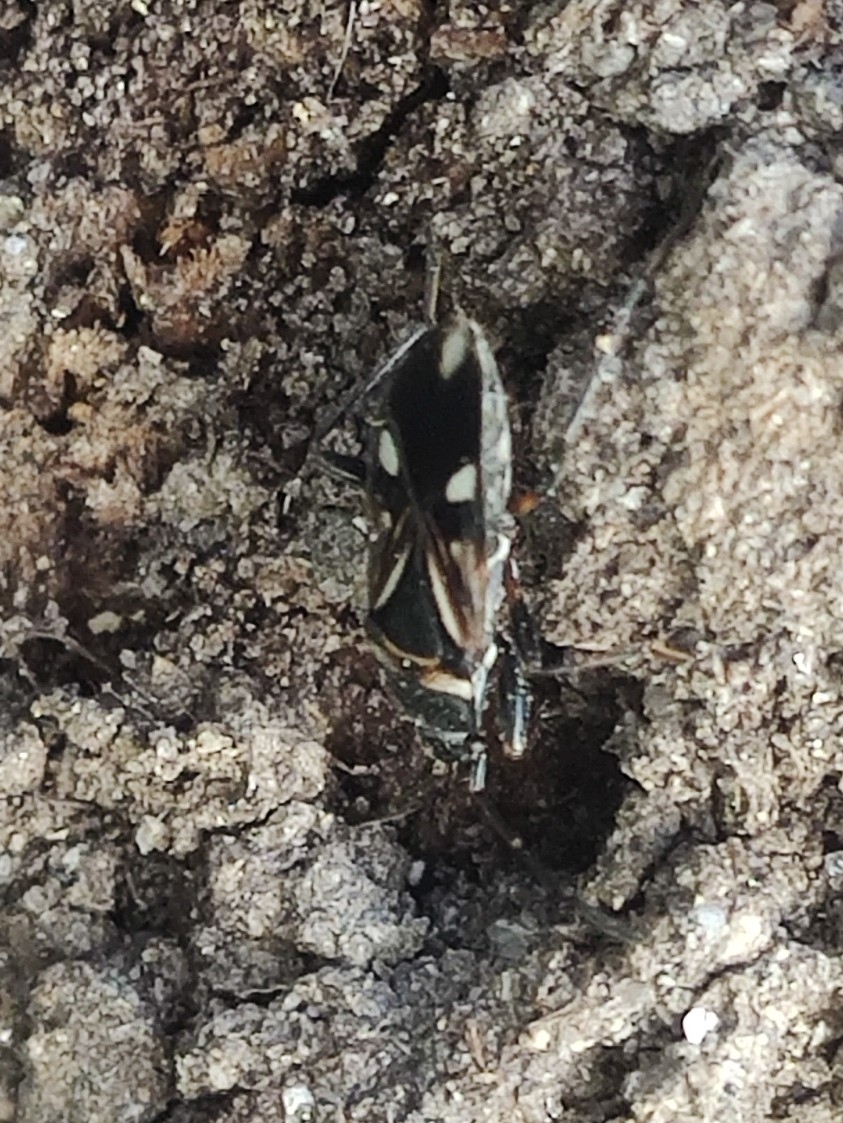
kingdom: Animalia
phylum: Arthropoda
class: Insecta
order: Hemiptera
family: Rhyparochromidae
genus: Raglius
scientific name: Raglius alboacuminatus
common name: Dirt-colored seed bug
